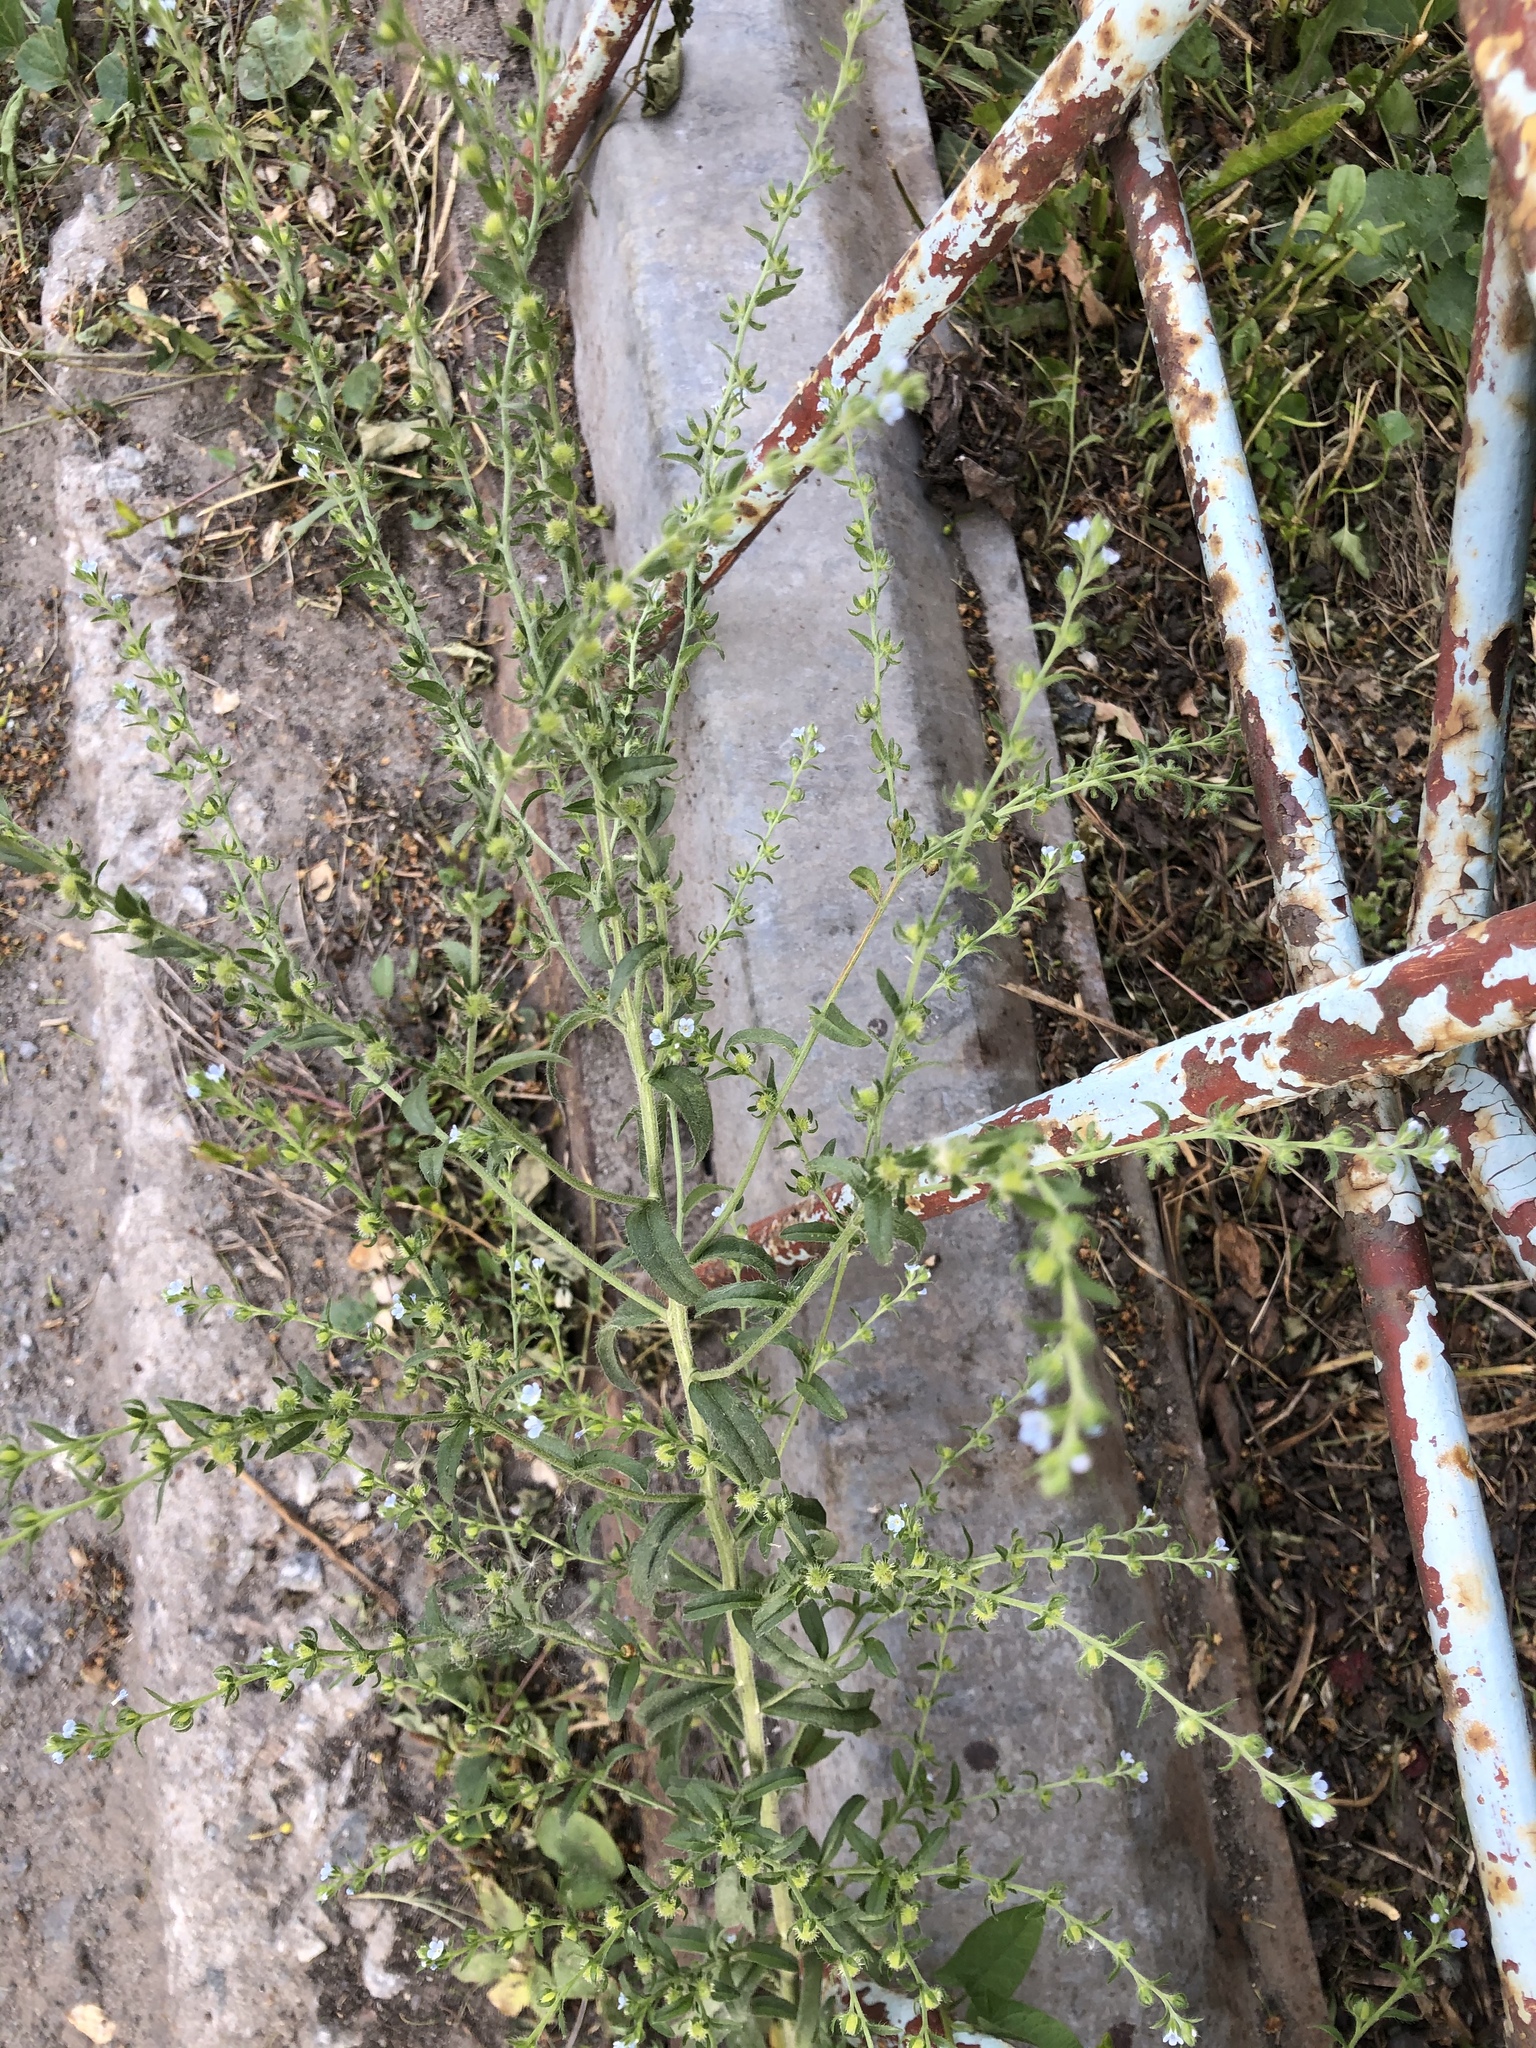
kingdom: Plantae
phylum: Tracheophyta
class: Magnoliopsida
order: Boraginales
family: Boraginaceae
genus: Lappula
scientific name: Lappula squarrosa
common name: European stickseed
